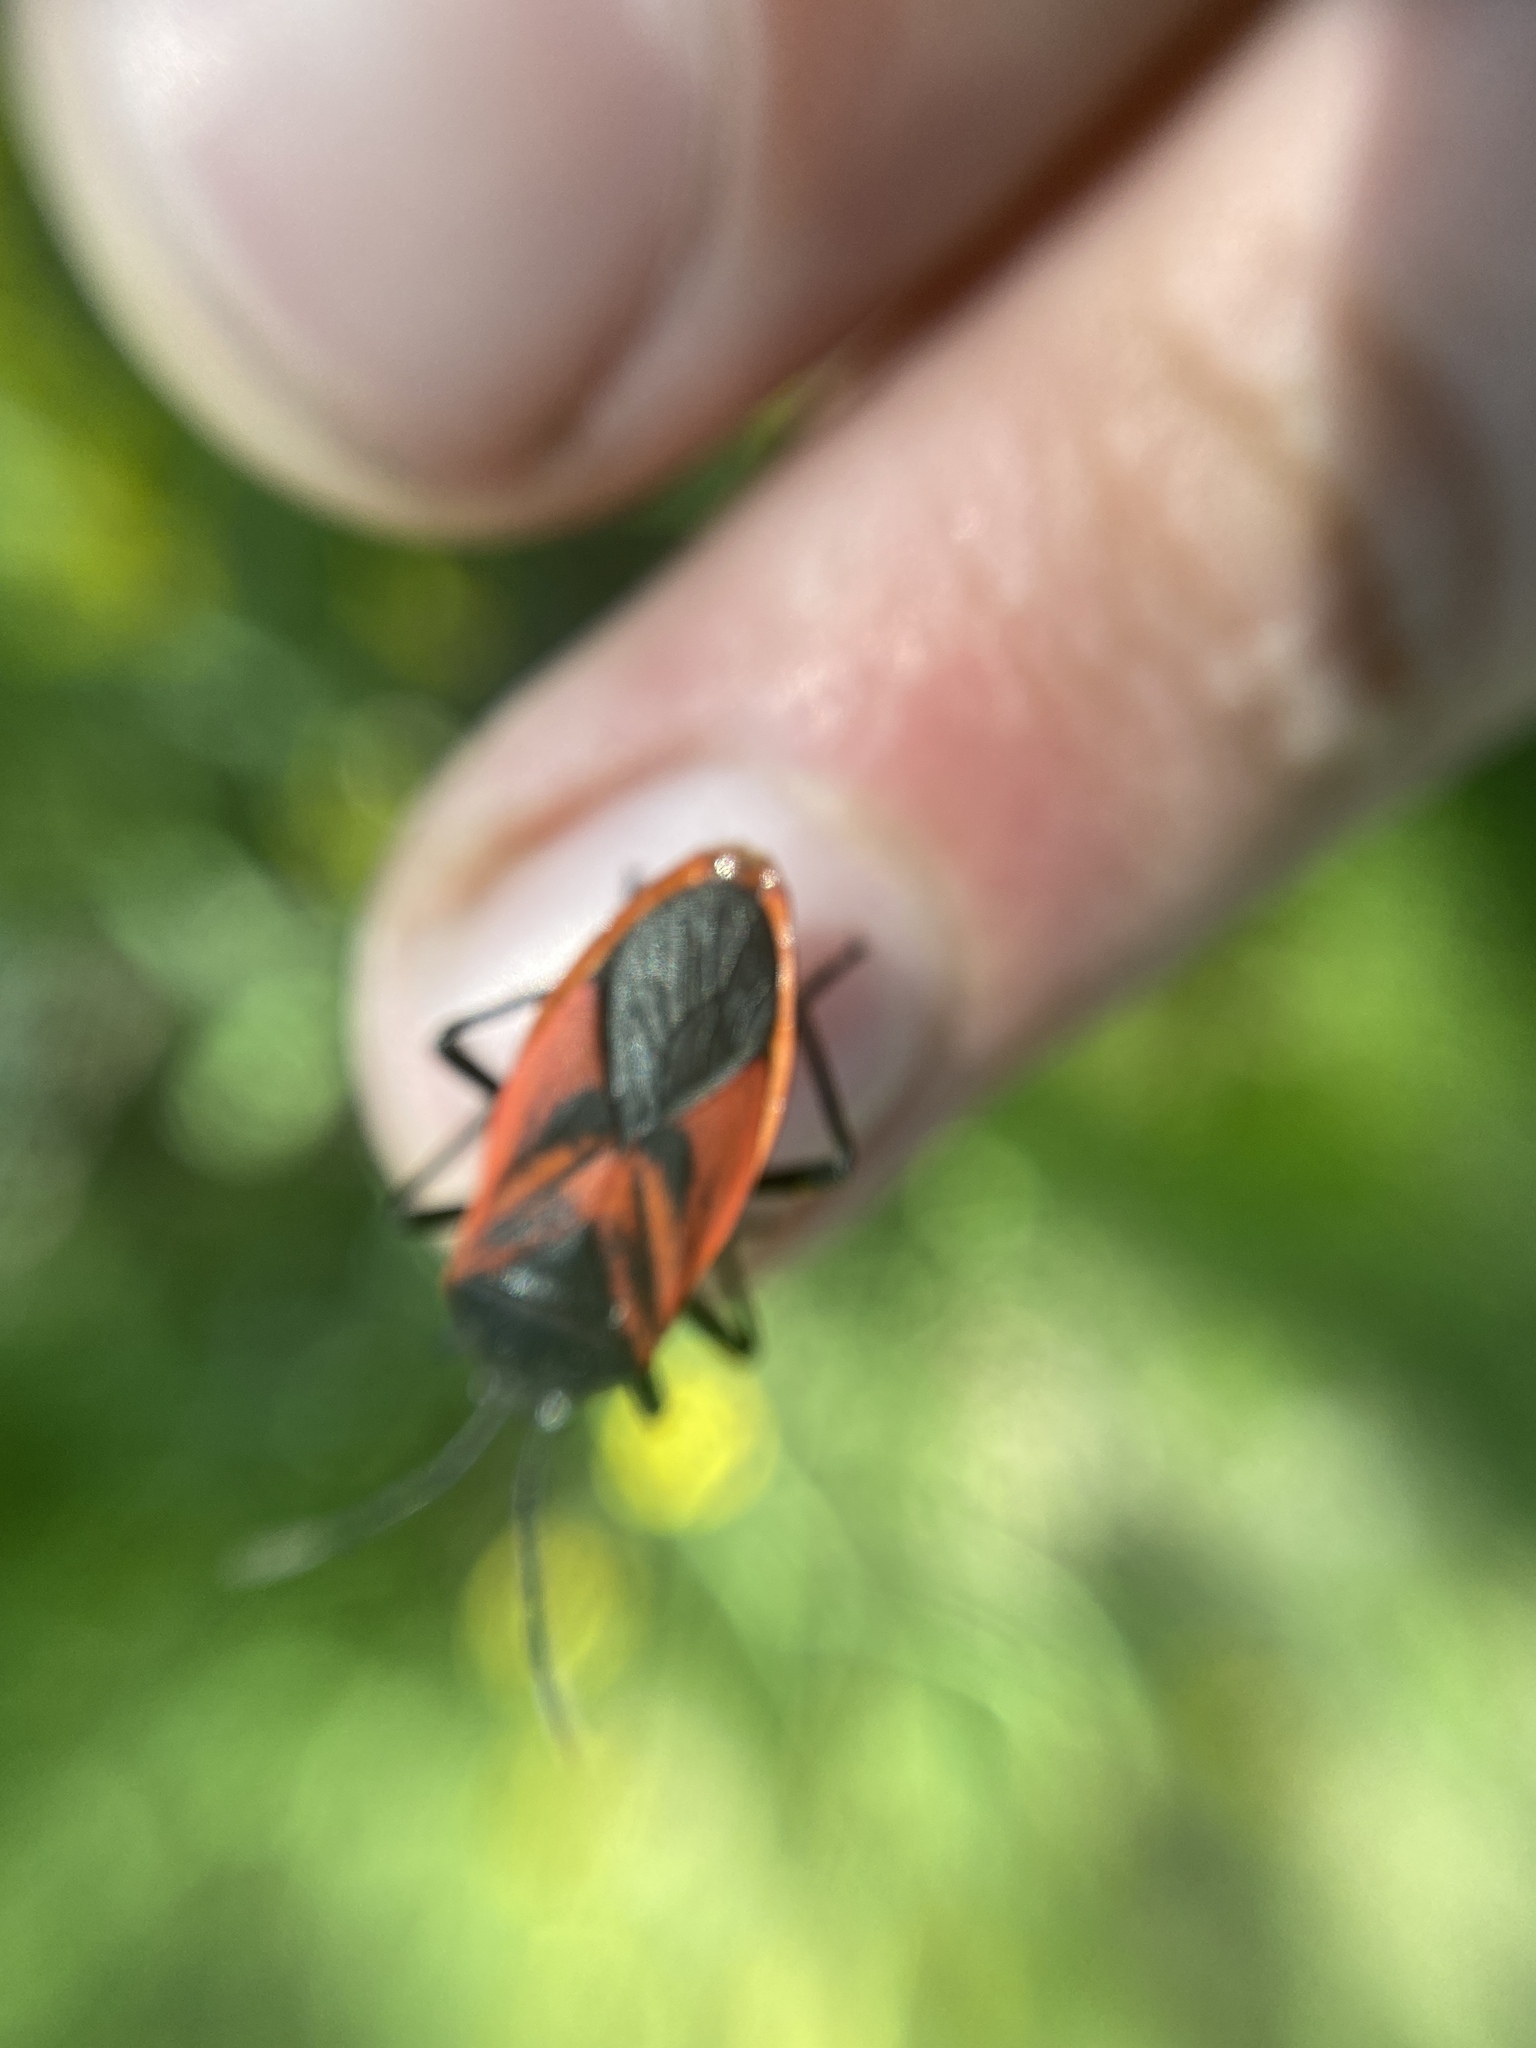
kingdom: Animalia
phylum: Arthropoda
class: Insecta
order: Hemiptera
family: Largidae
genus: Largus
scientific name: Largus rufipennis
